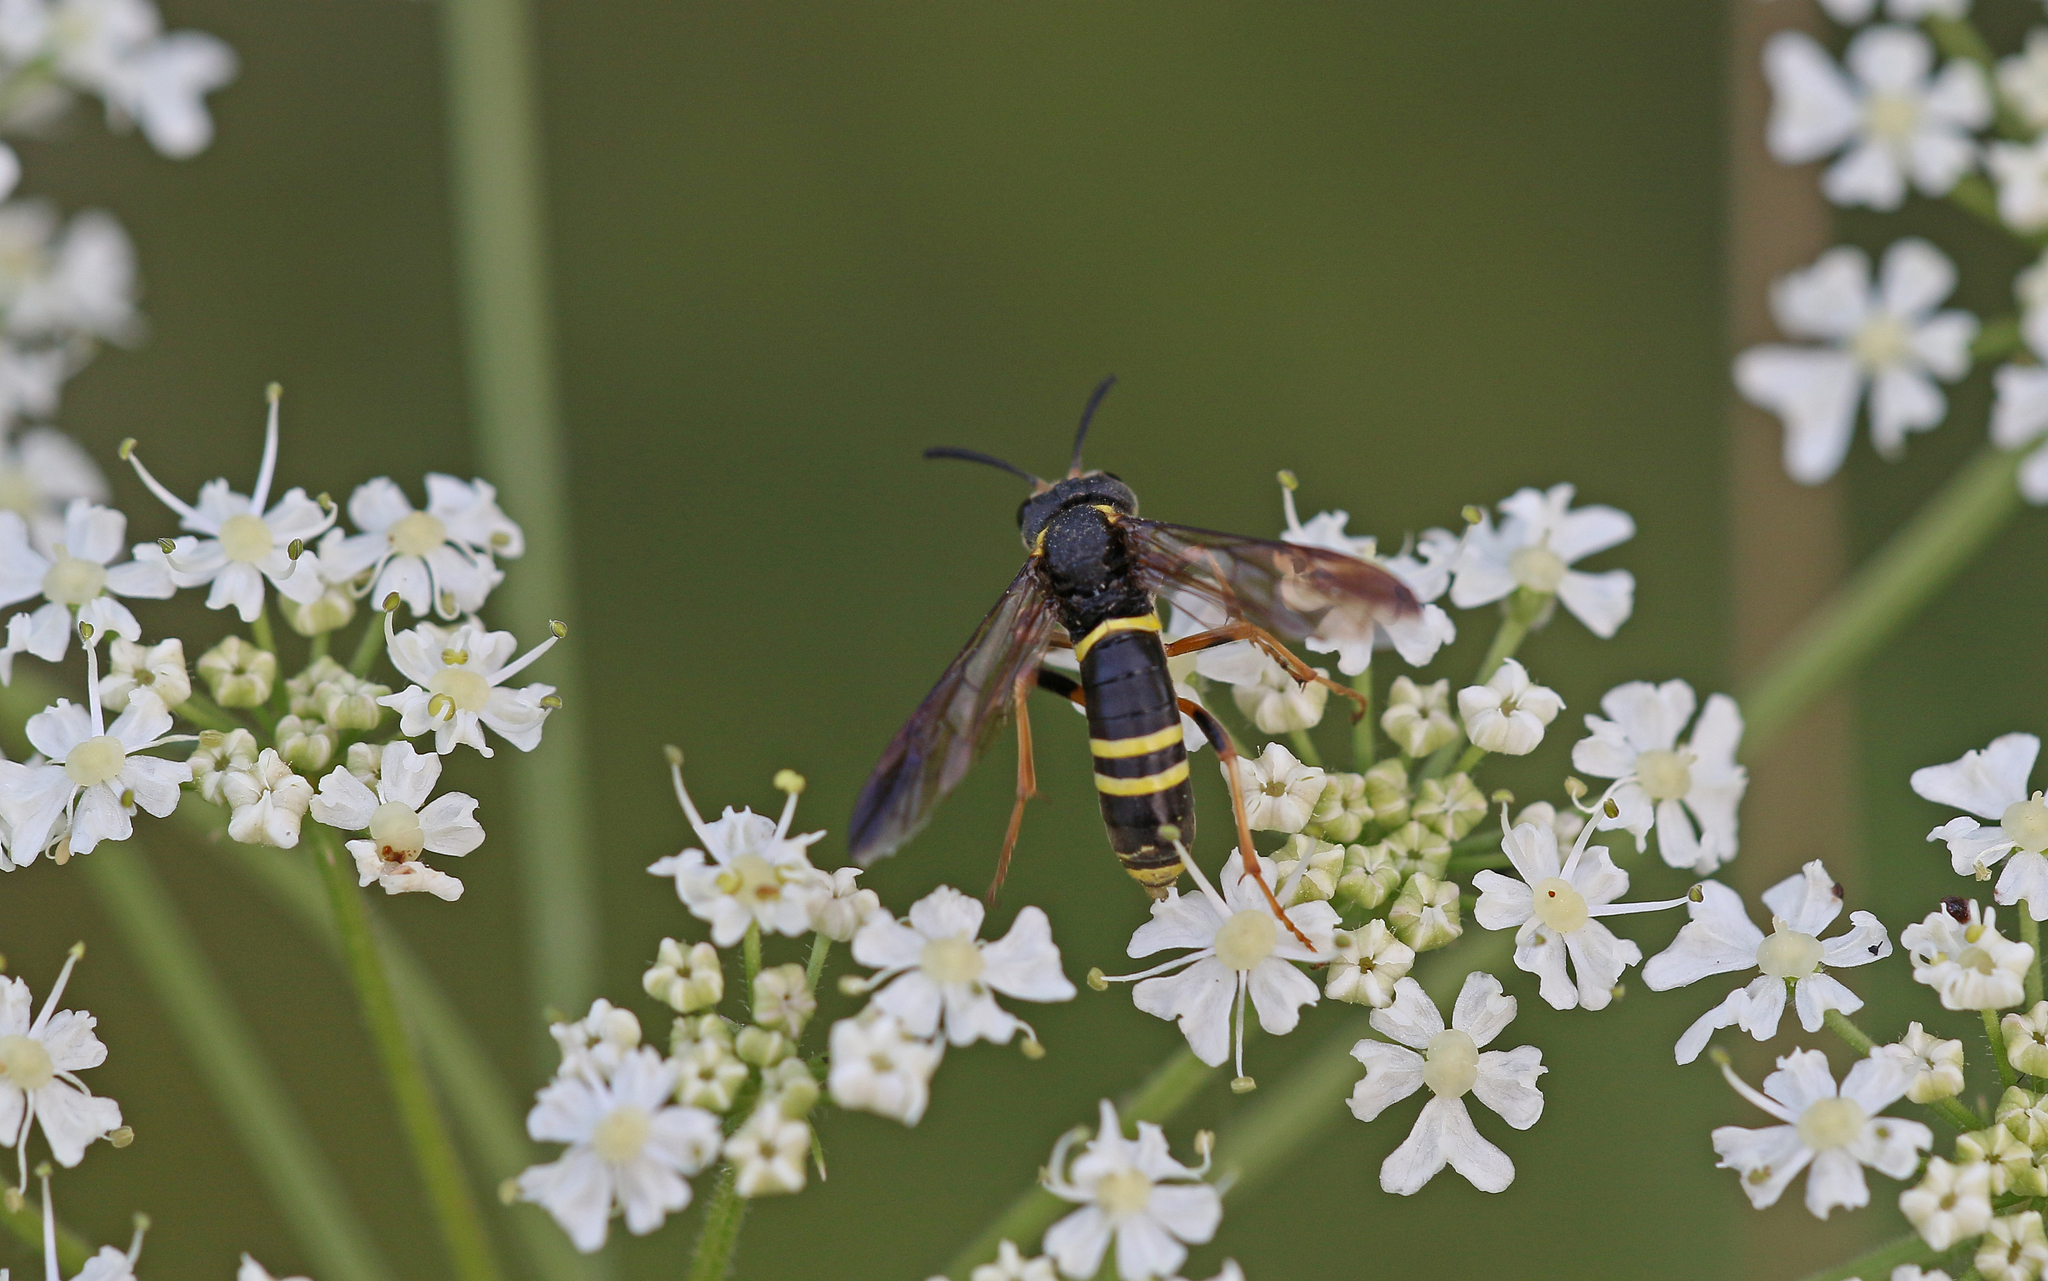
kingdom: Animalia
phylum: Arthropoda
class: Insecta
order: Hymenoptera
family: Tenthredinidae
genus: Tenthredo
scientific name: Tenthredo vespa
